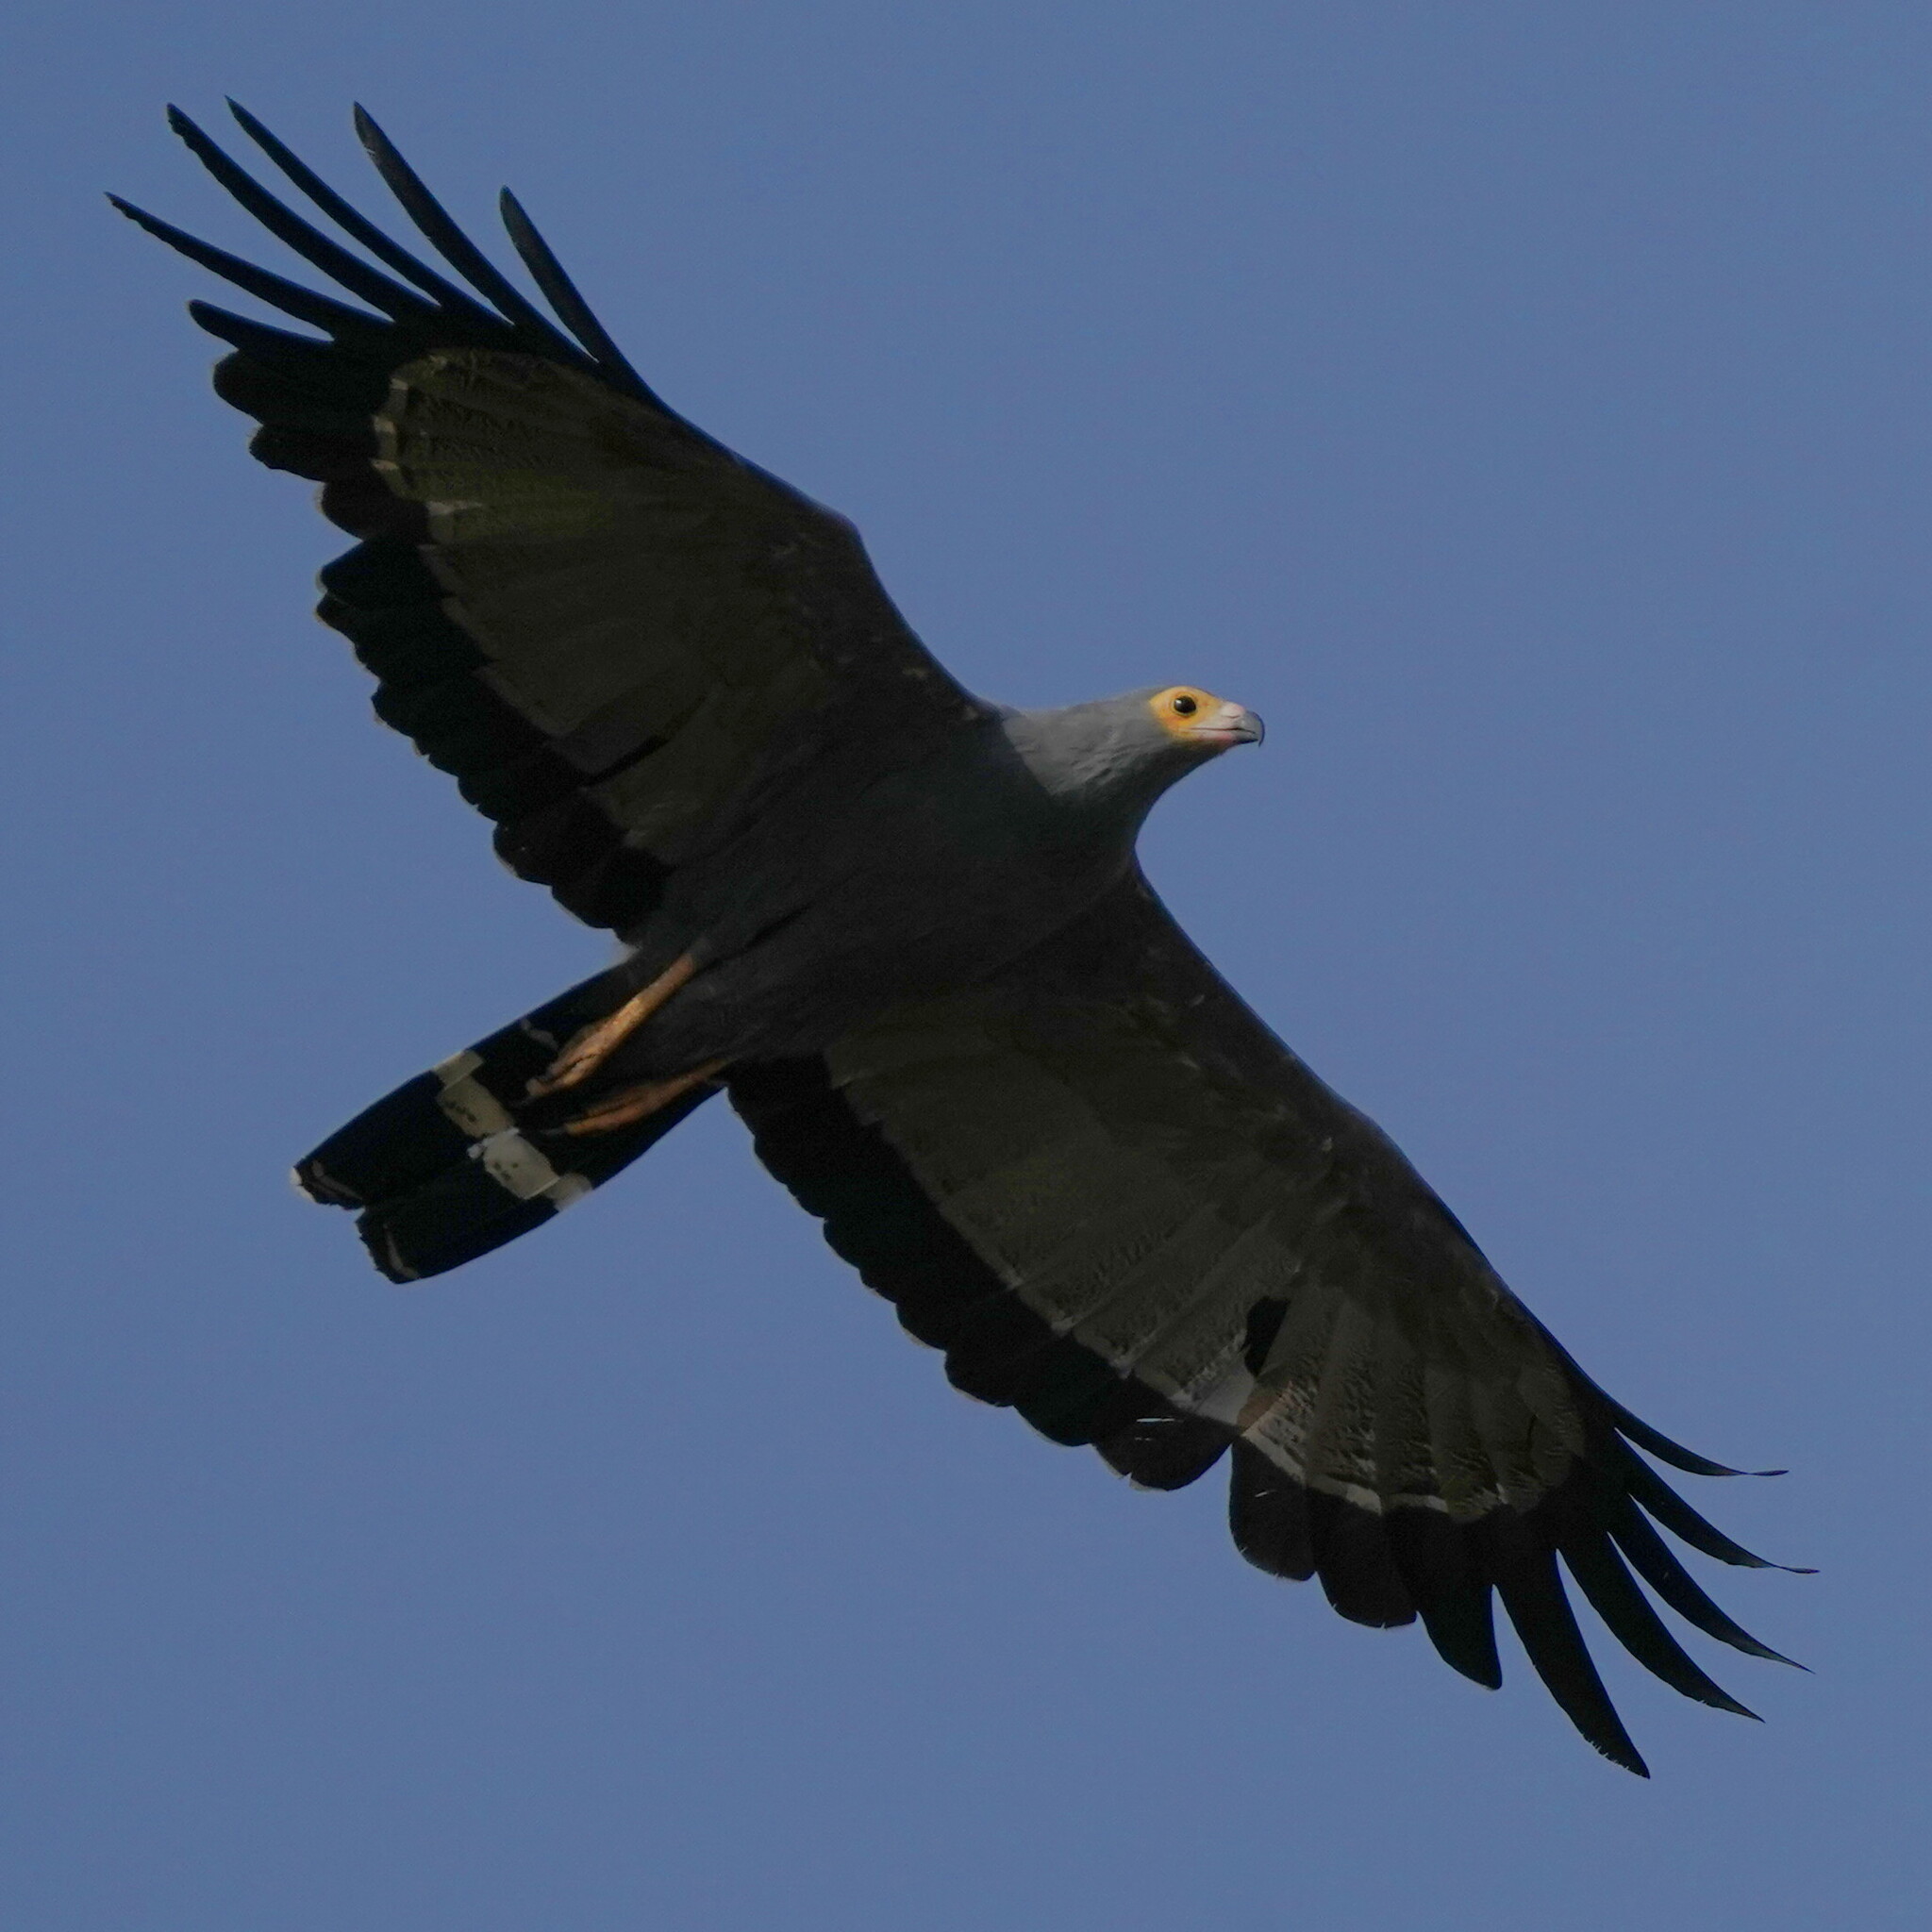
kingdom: Animalia
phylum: Chordata
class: Aves
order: Accipitriformes
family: Accipitridae
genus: Polyboroides
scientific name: Polyboroides typus
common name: African harrier-hawk
